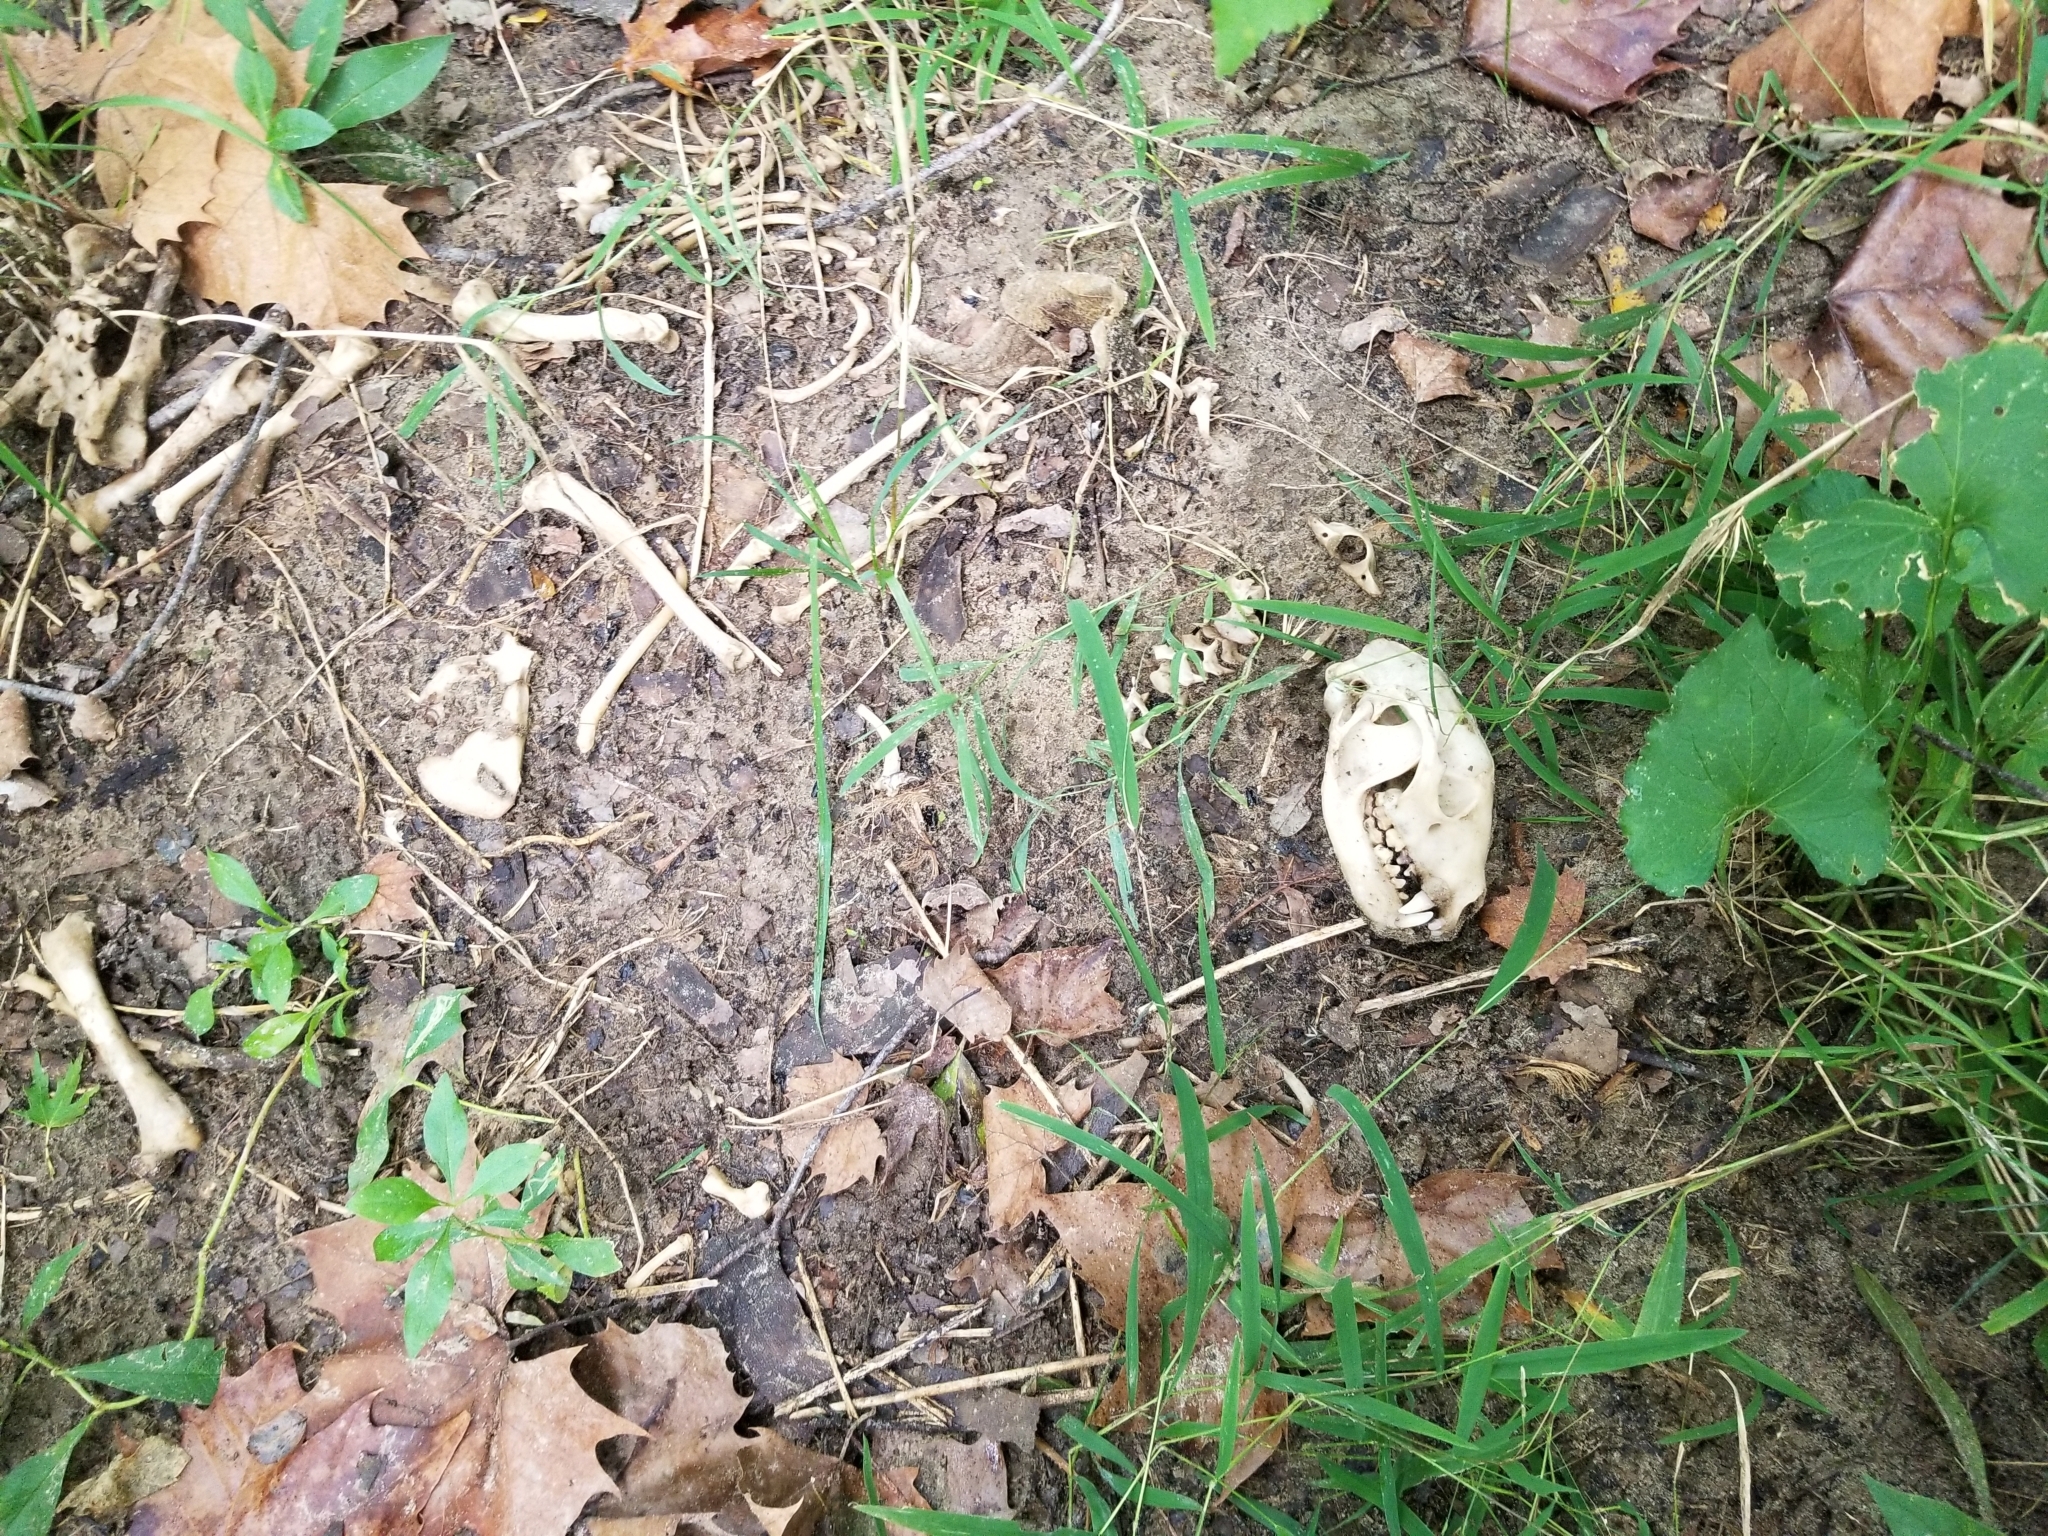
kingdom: Animalia
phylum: Chordata
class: Mammalia
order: Carnivora
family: Procyonidae
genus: Procyon
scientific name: Procyon lotor
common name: Raccoon
